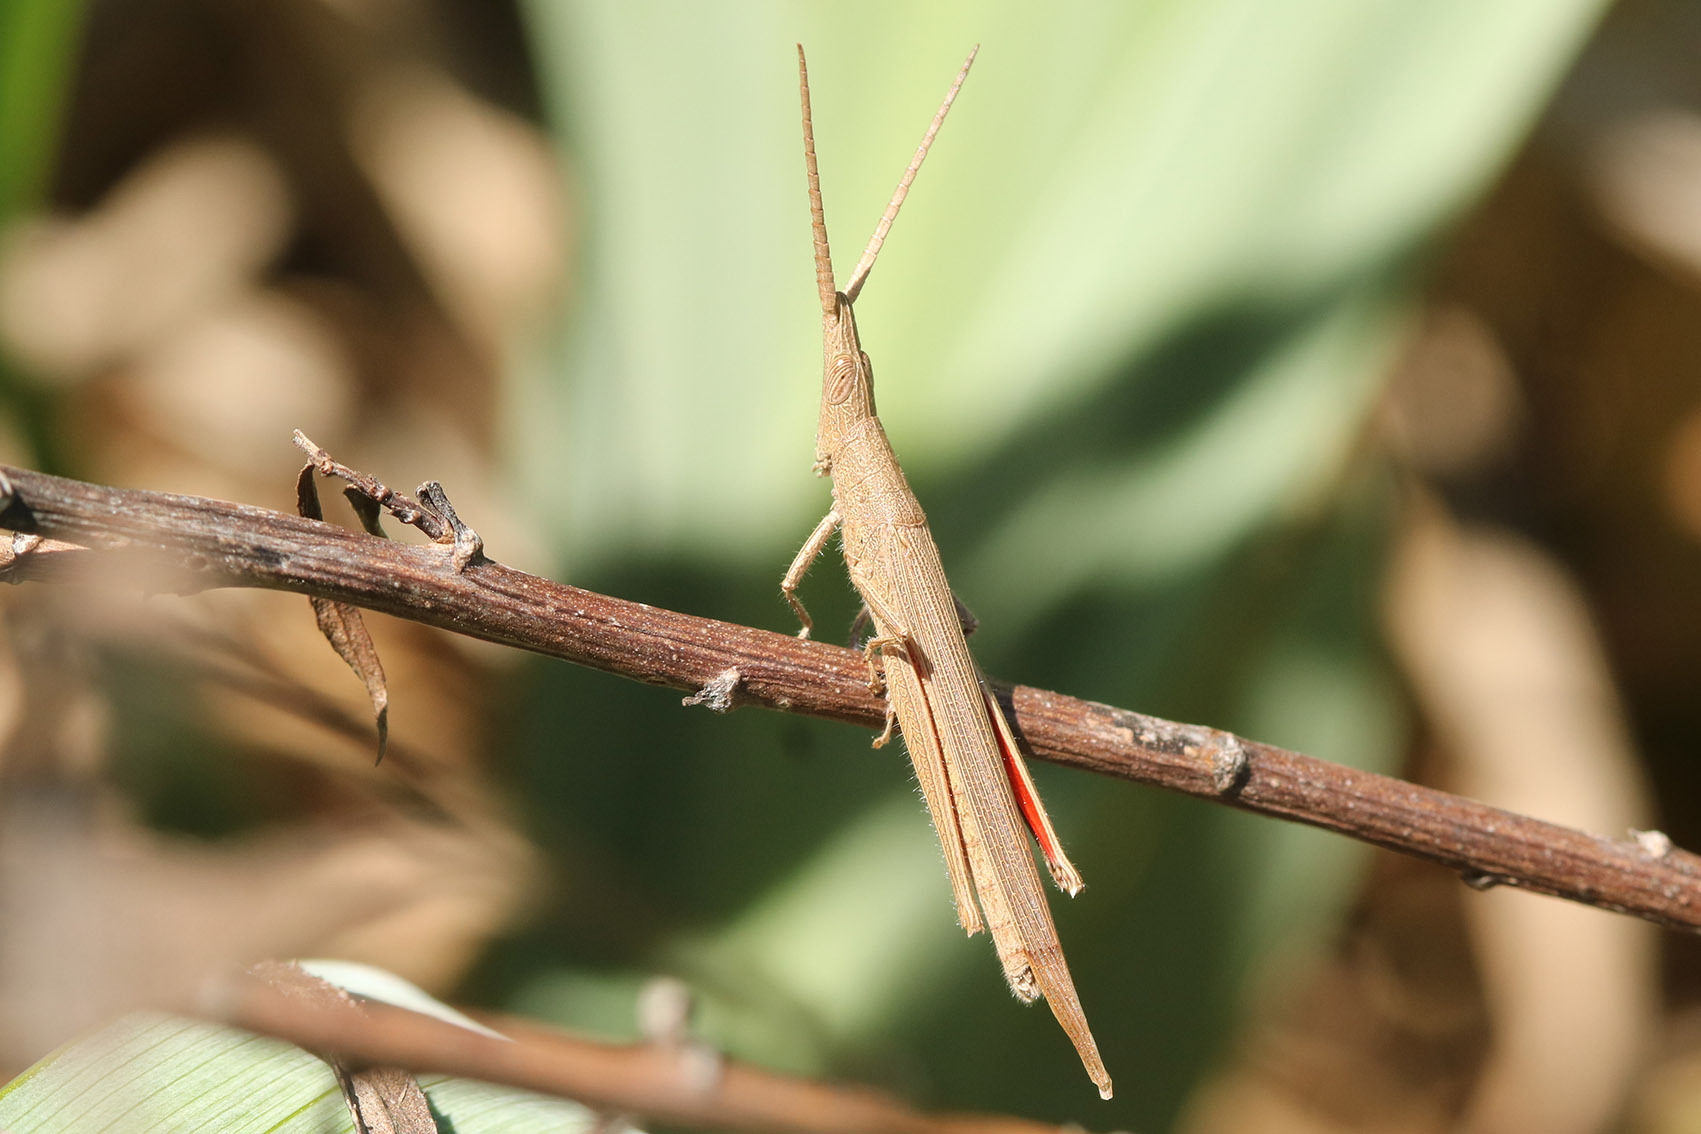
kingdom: Animalia
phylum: Arthropoda
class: Insecta
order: Orthoptera
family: Acrididae
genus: Haroldgrantia
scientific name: Haroldgrantia lignosa
